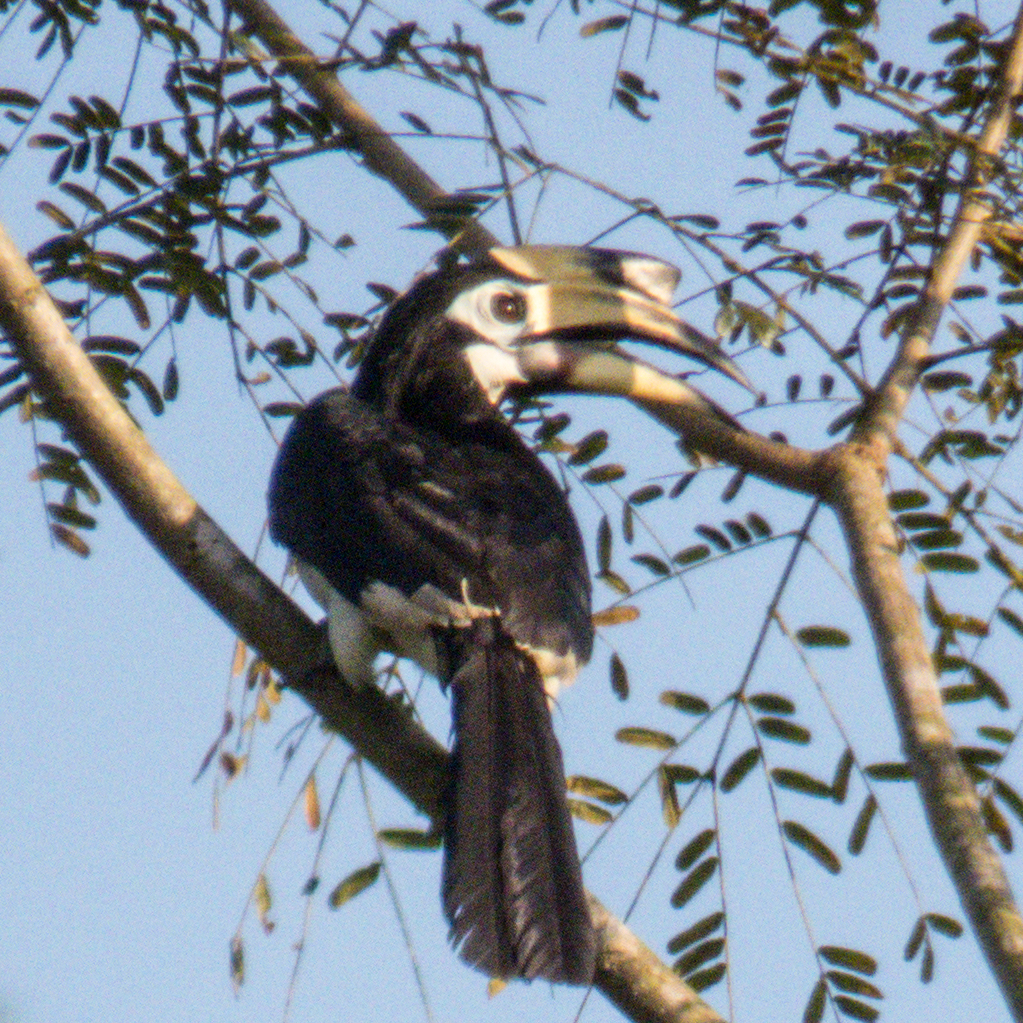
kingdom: Animalia
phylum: Chordata
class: Aves
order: Bucerotiformes
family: Bucerotidae
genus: Anthracoceros
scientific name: Anthracoceros albirostris
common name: Oriental pied-hornbill
